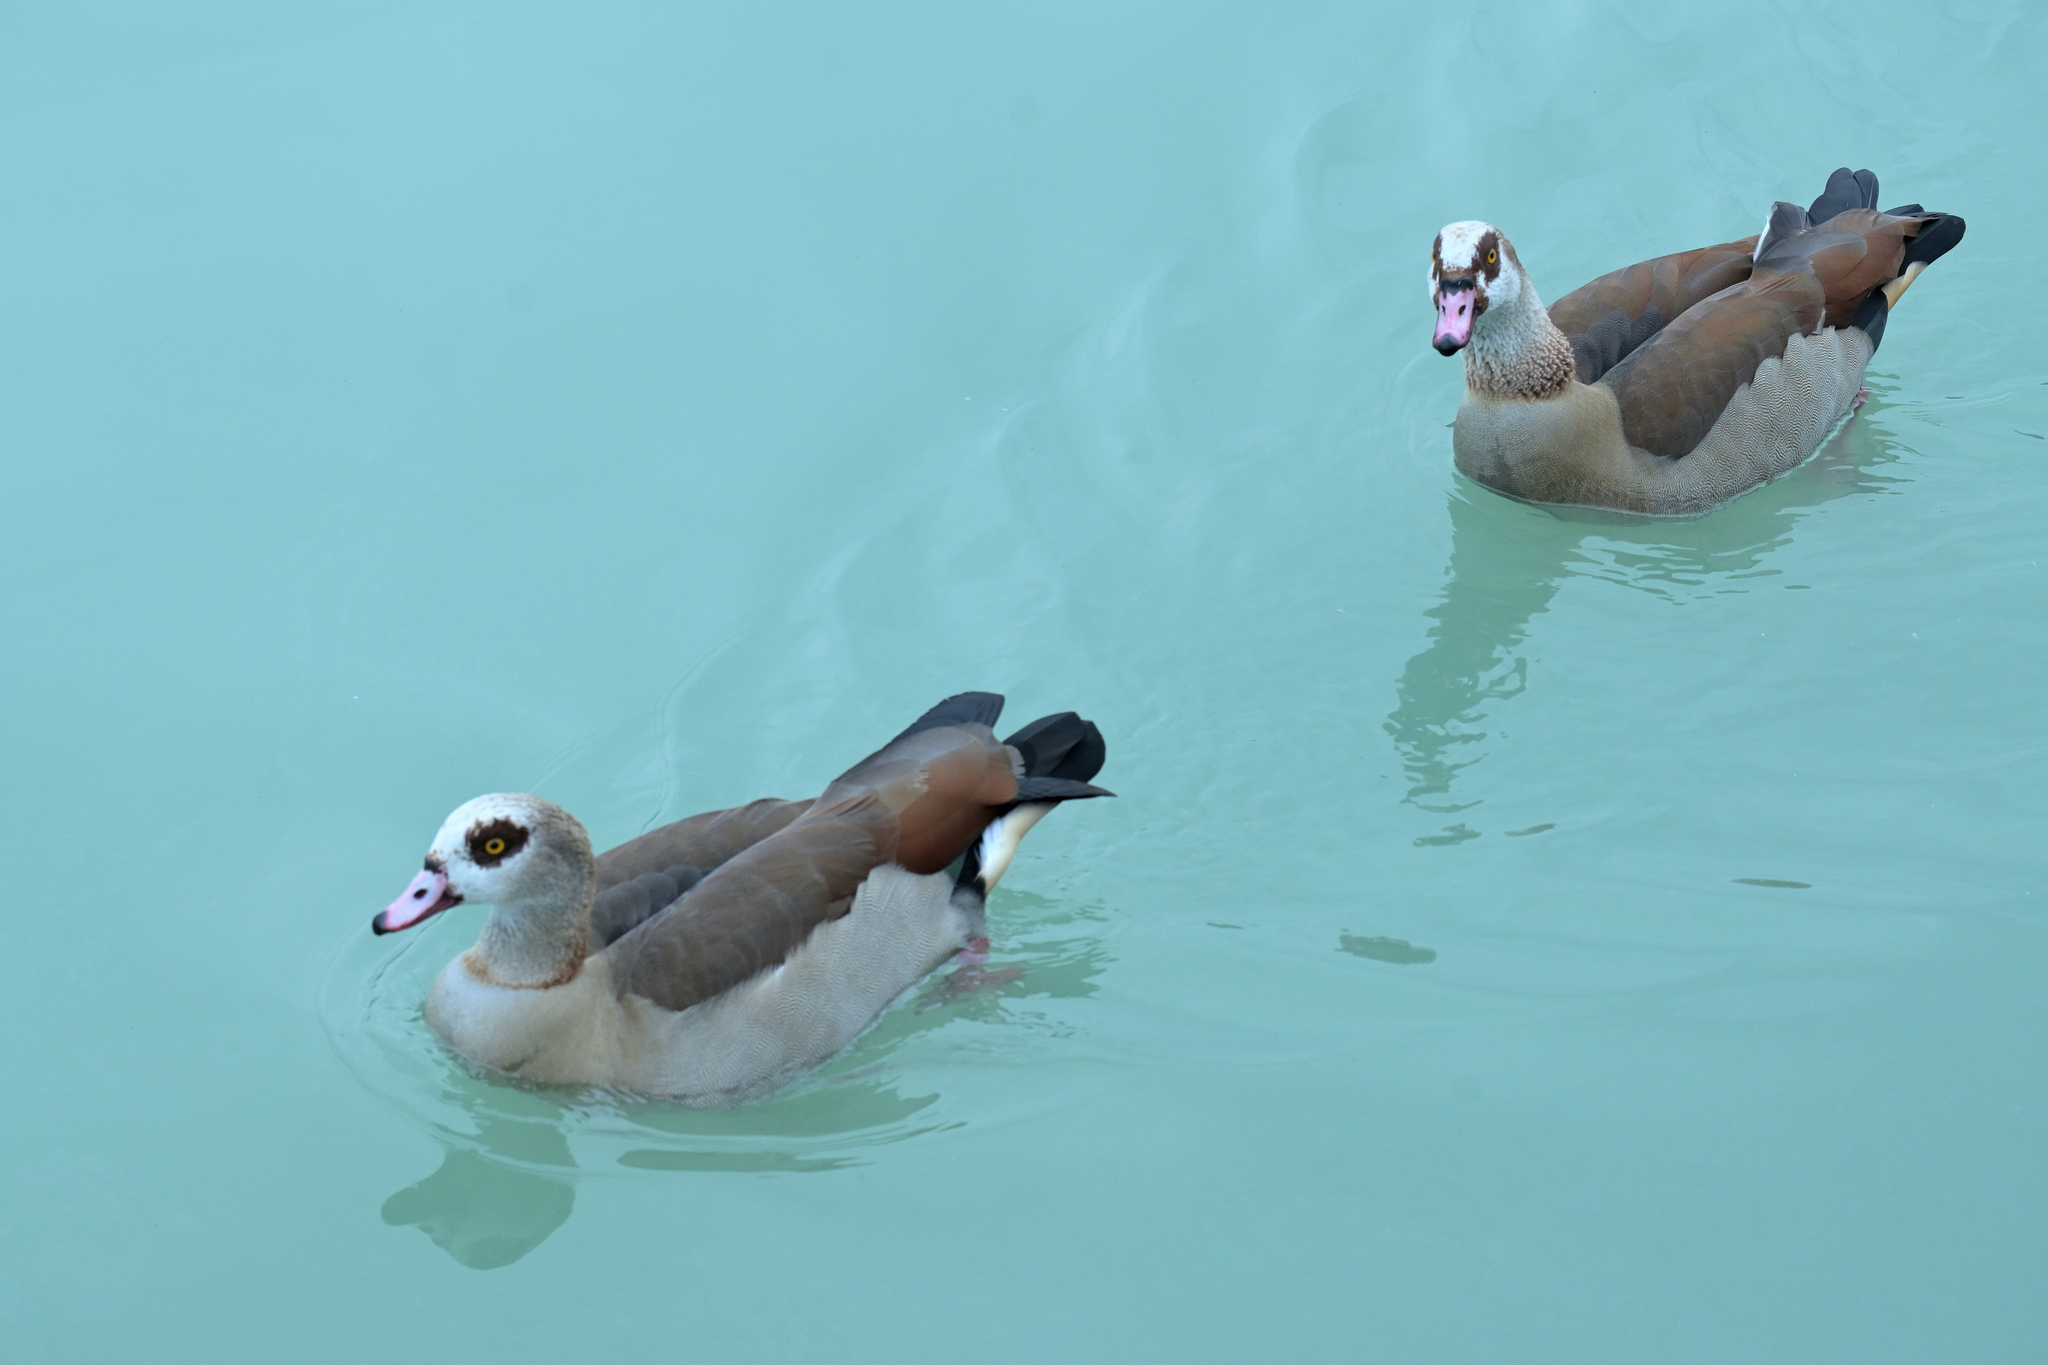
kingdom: Animalia
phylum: Chordata
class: Aves
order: Anseriformes
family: Anatidae
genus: Alopochen
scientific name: Alopochen aegyptiaca
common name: Egyptian goose
